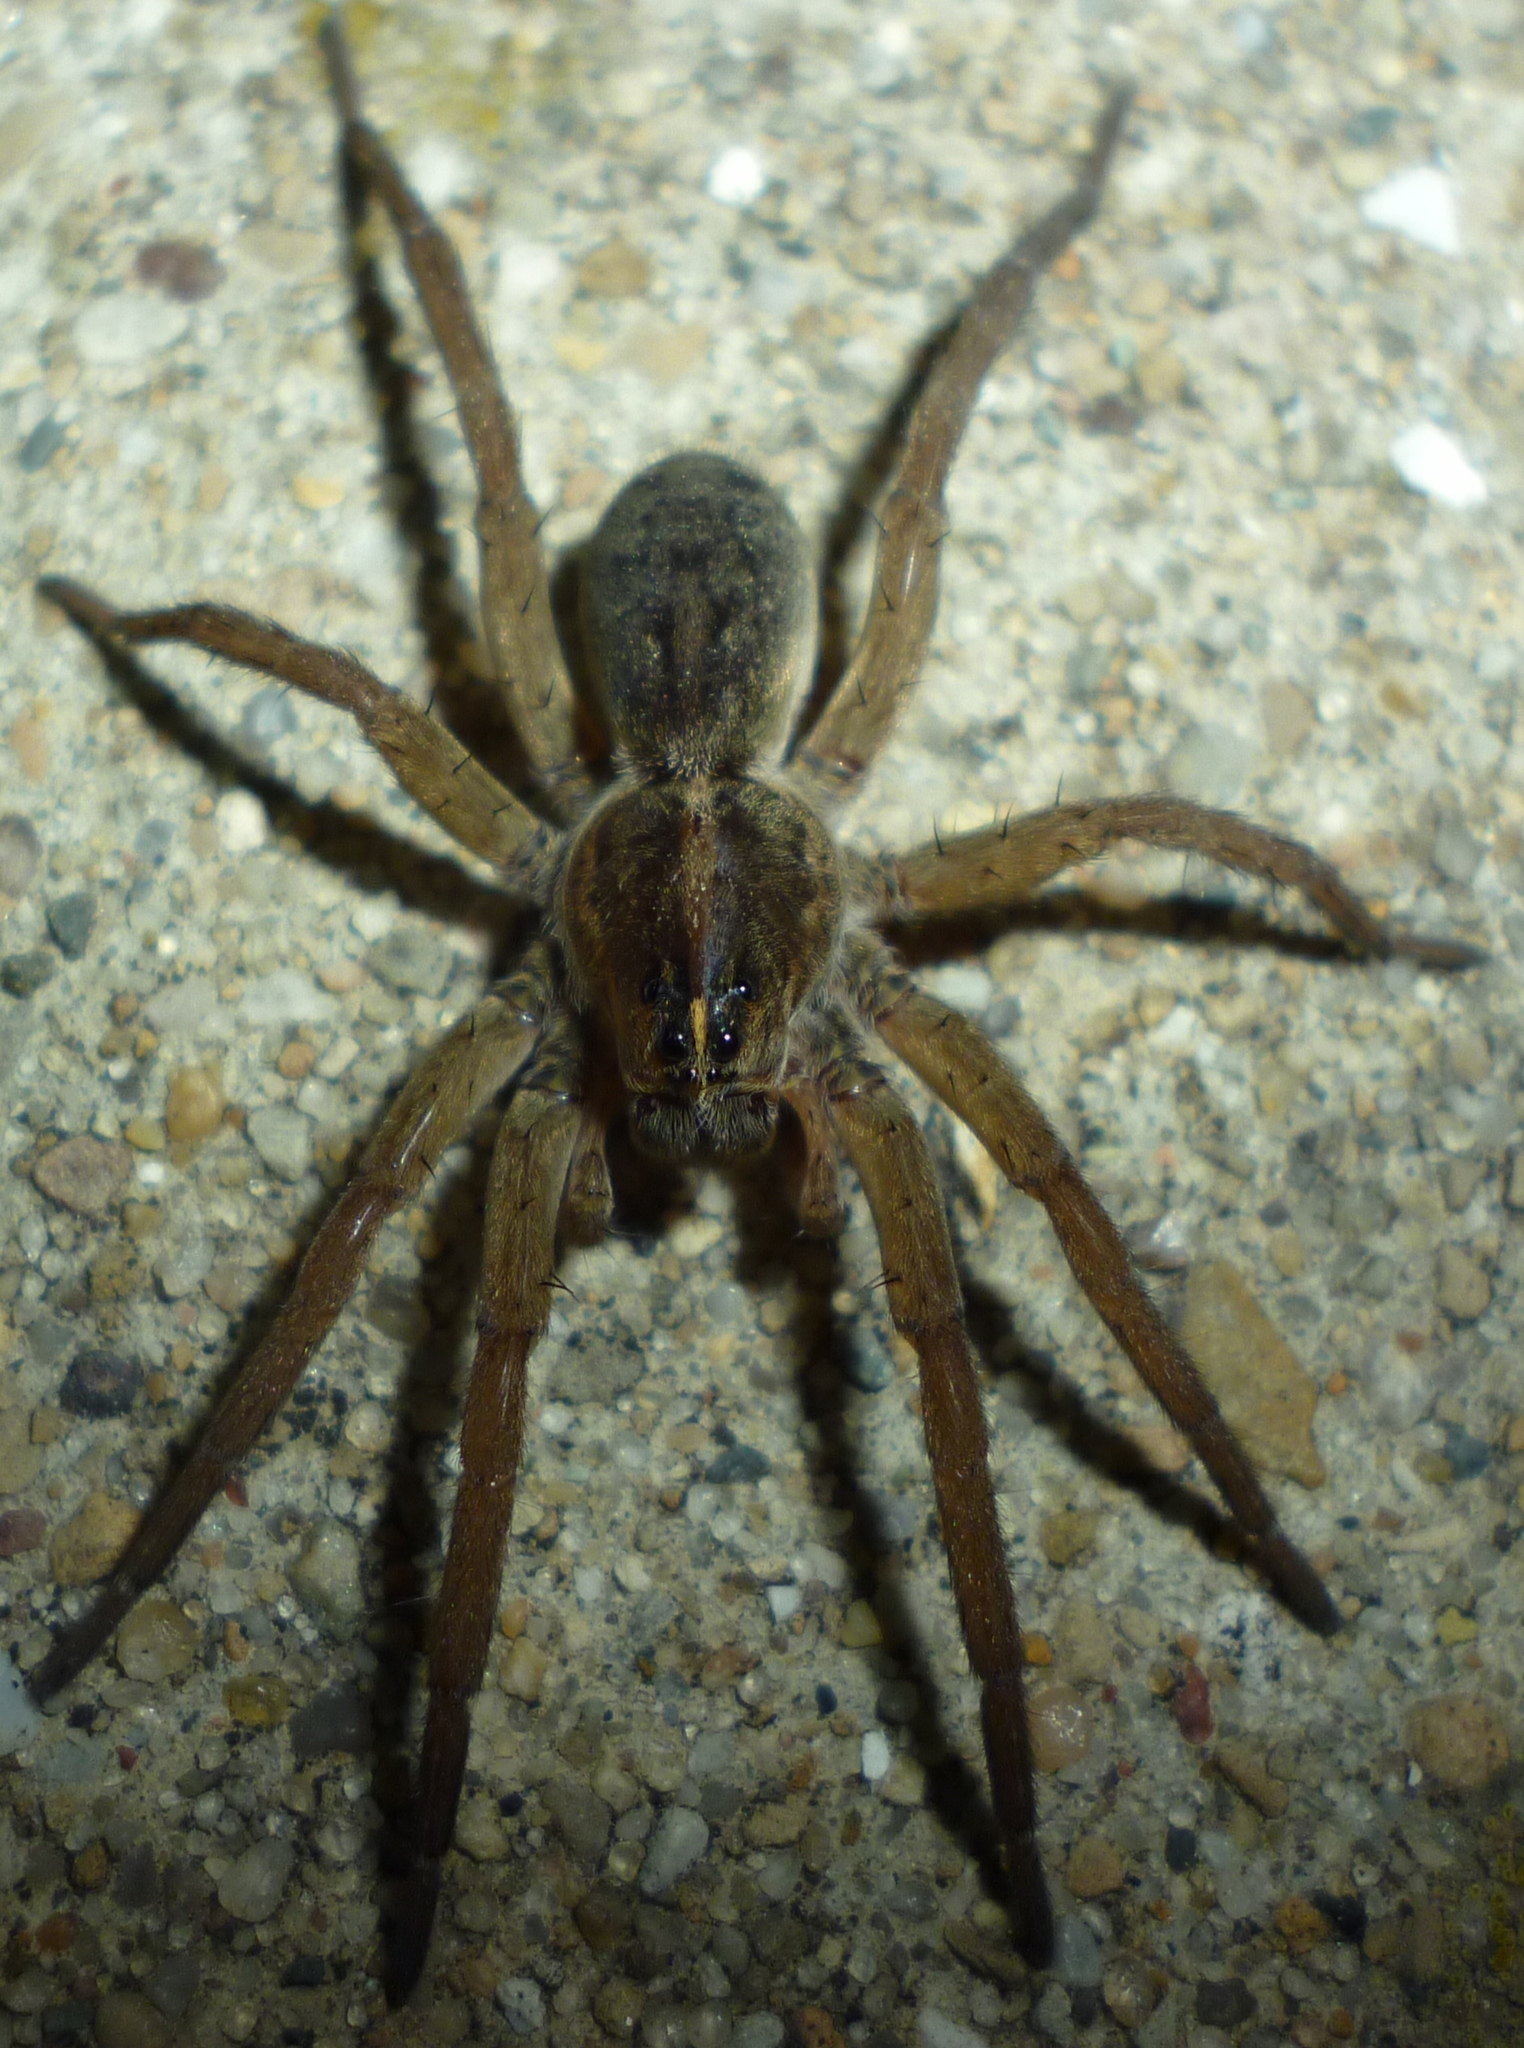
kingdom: Animalia
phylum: Arthropoda
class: Arachnida
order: Araneae
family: Lycosidae
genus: Tigrosa
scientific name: Tigrosa helluo
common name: Wetland giant wolf spider
